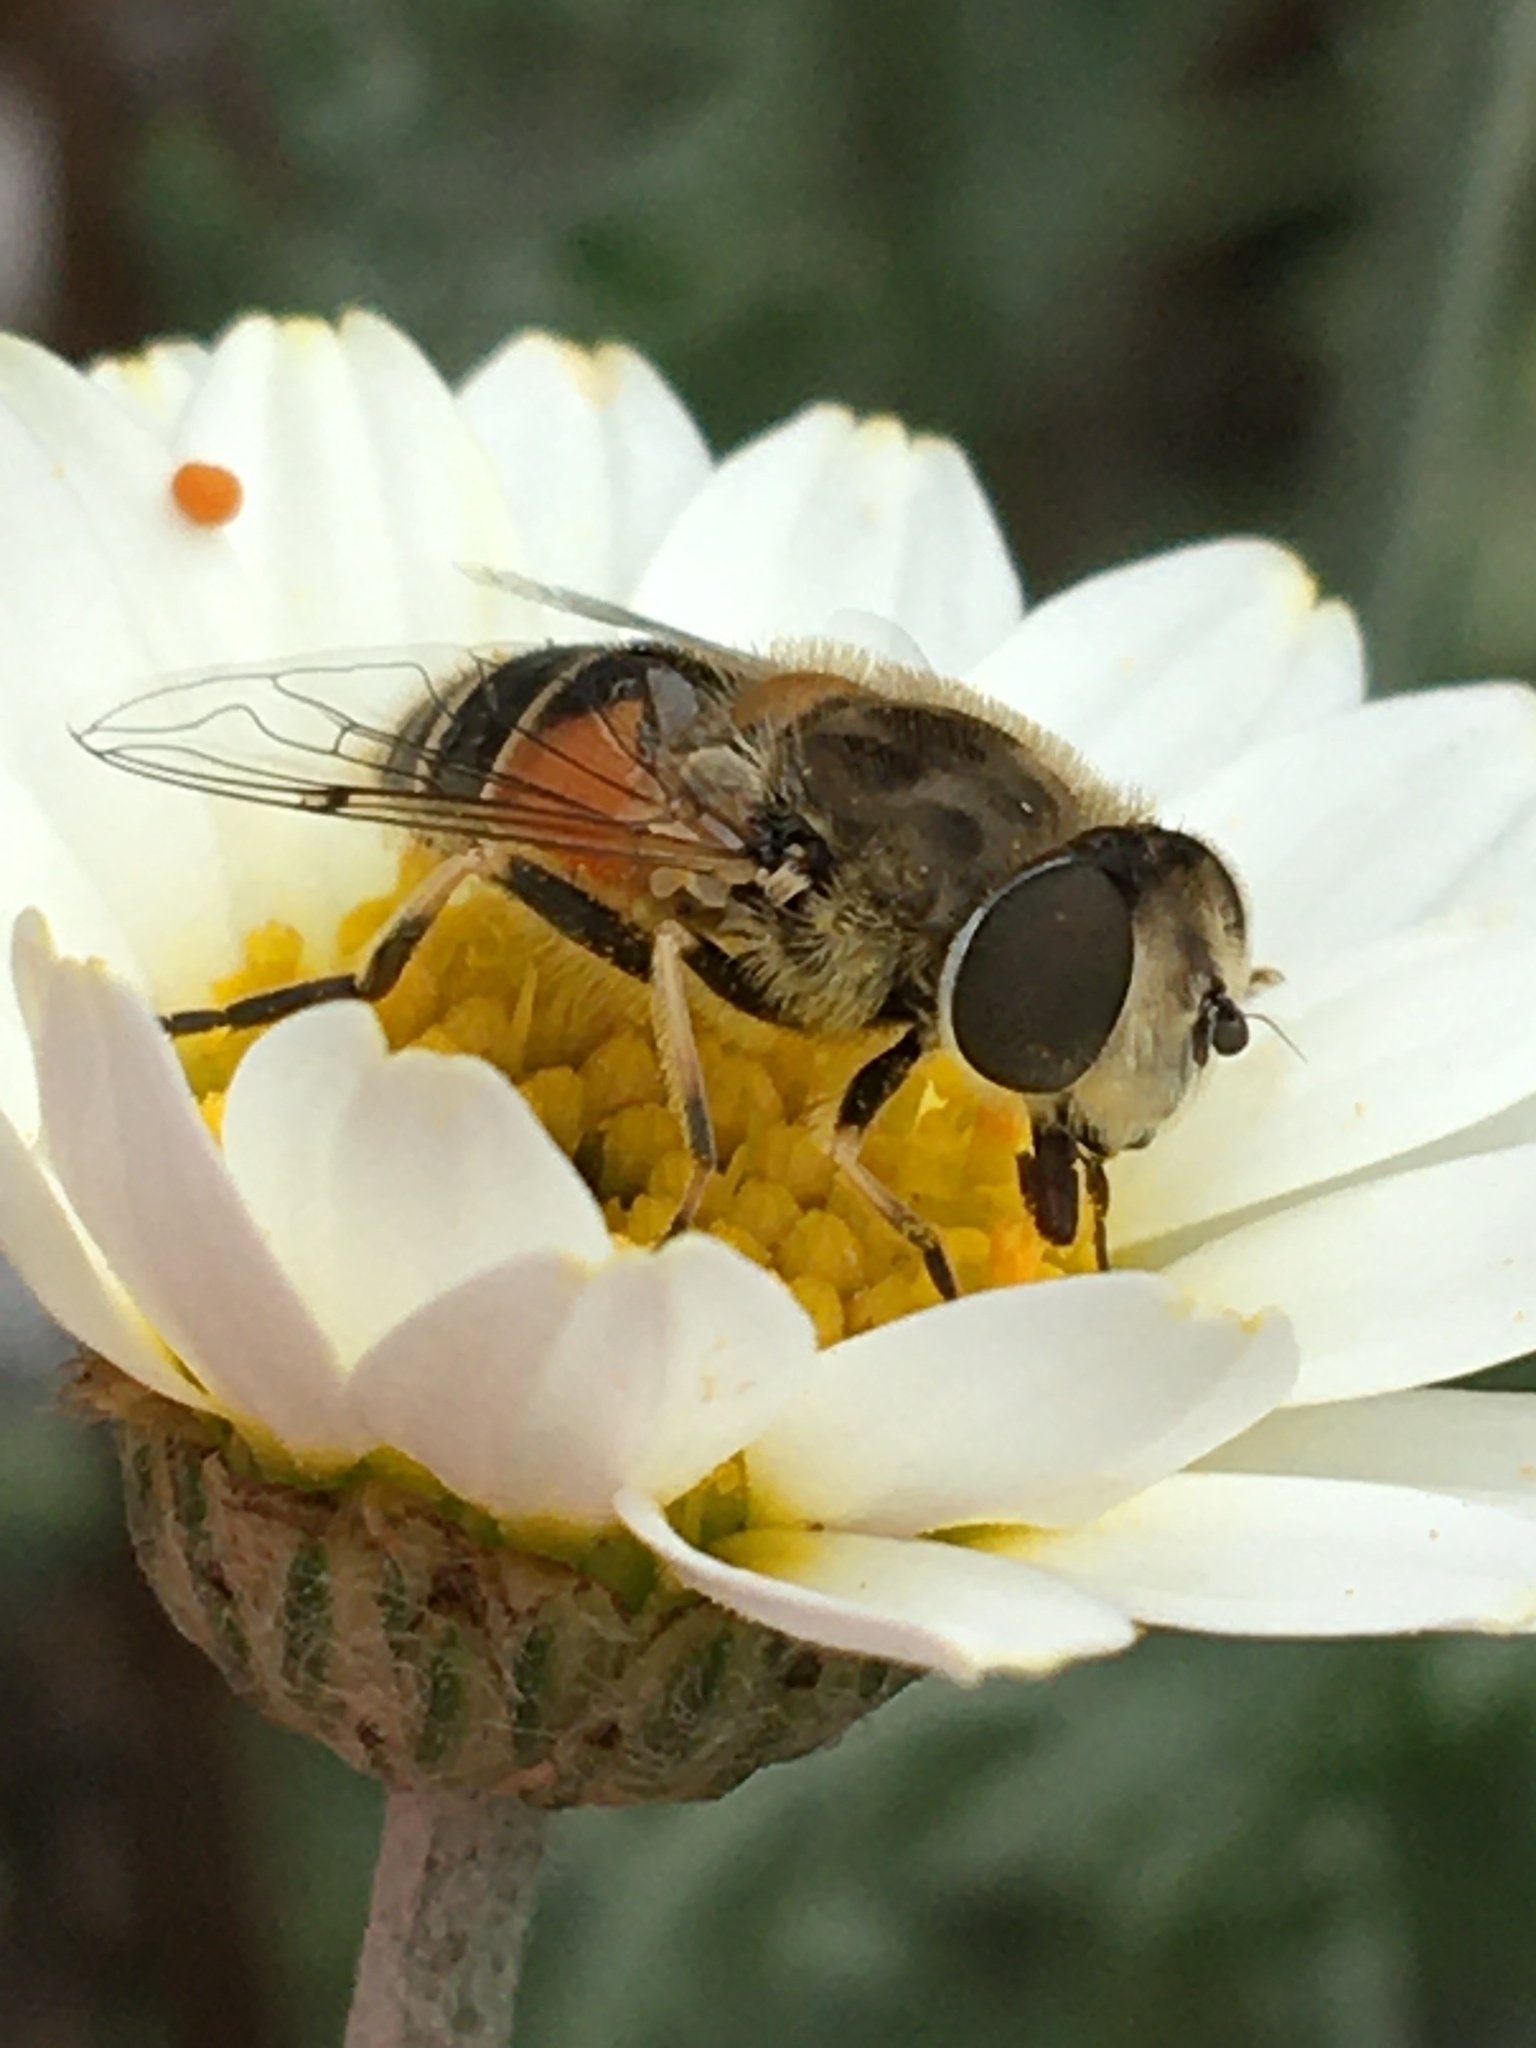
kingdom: Animalia
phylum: Arthropoda
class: Insecta
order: Diptera
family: Syrphidae
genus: Eristalis
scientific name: Eristalis arbustorum
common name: Hover fly
